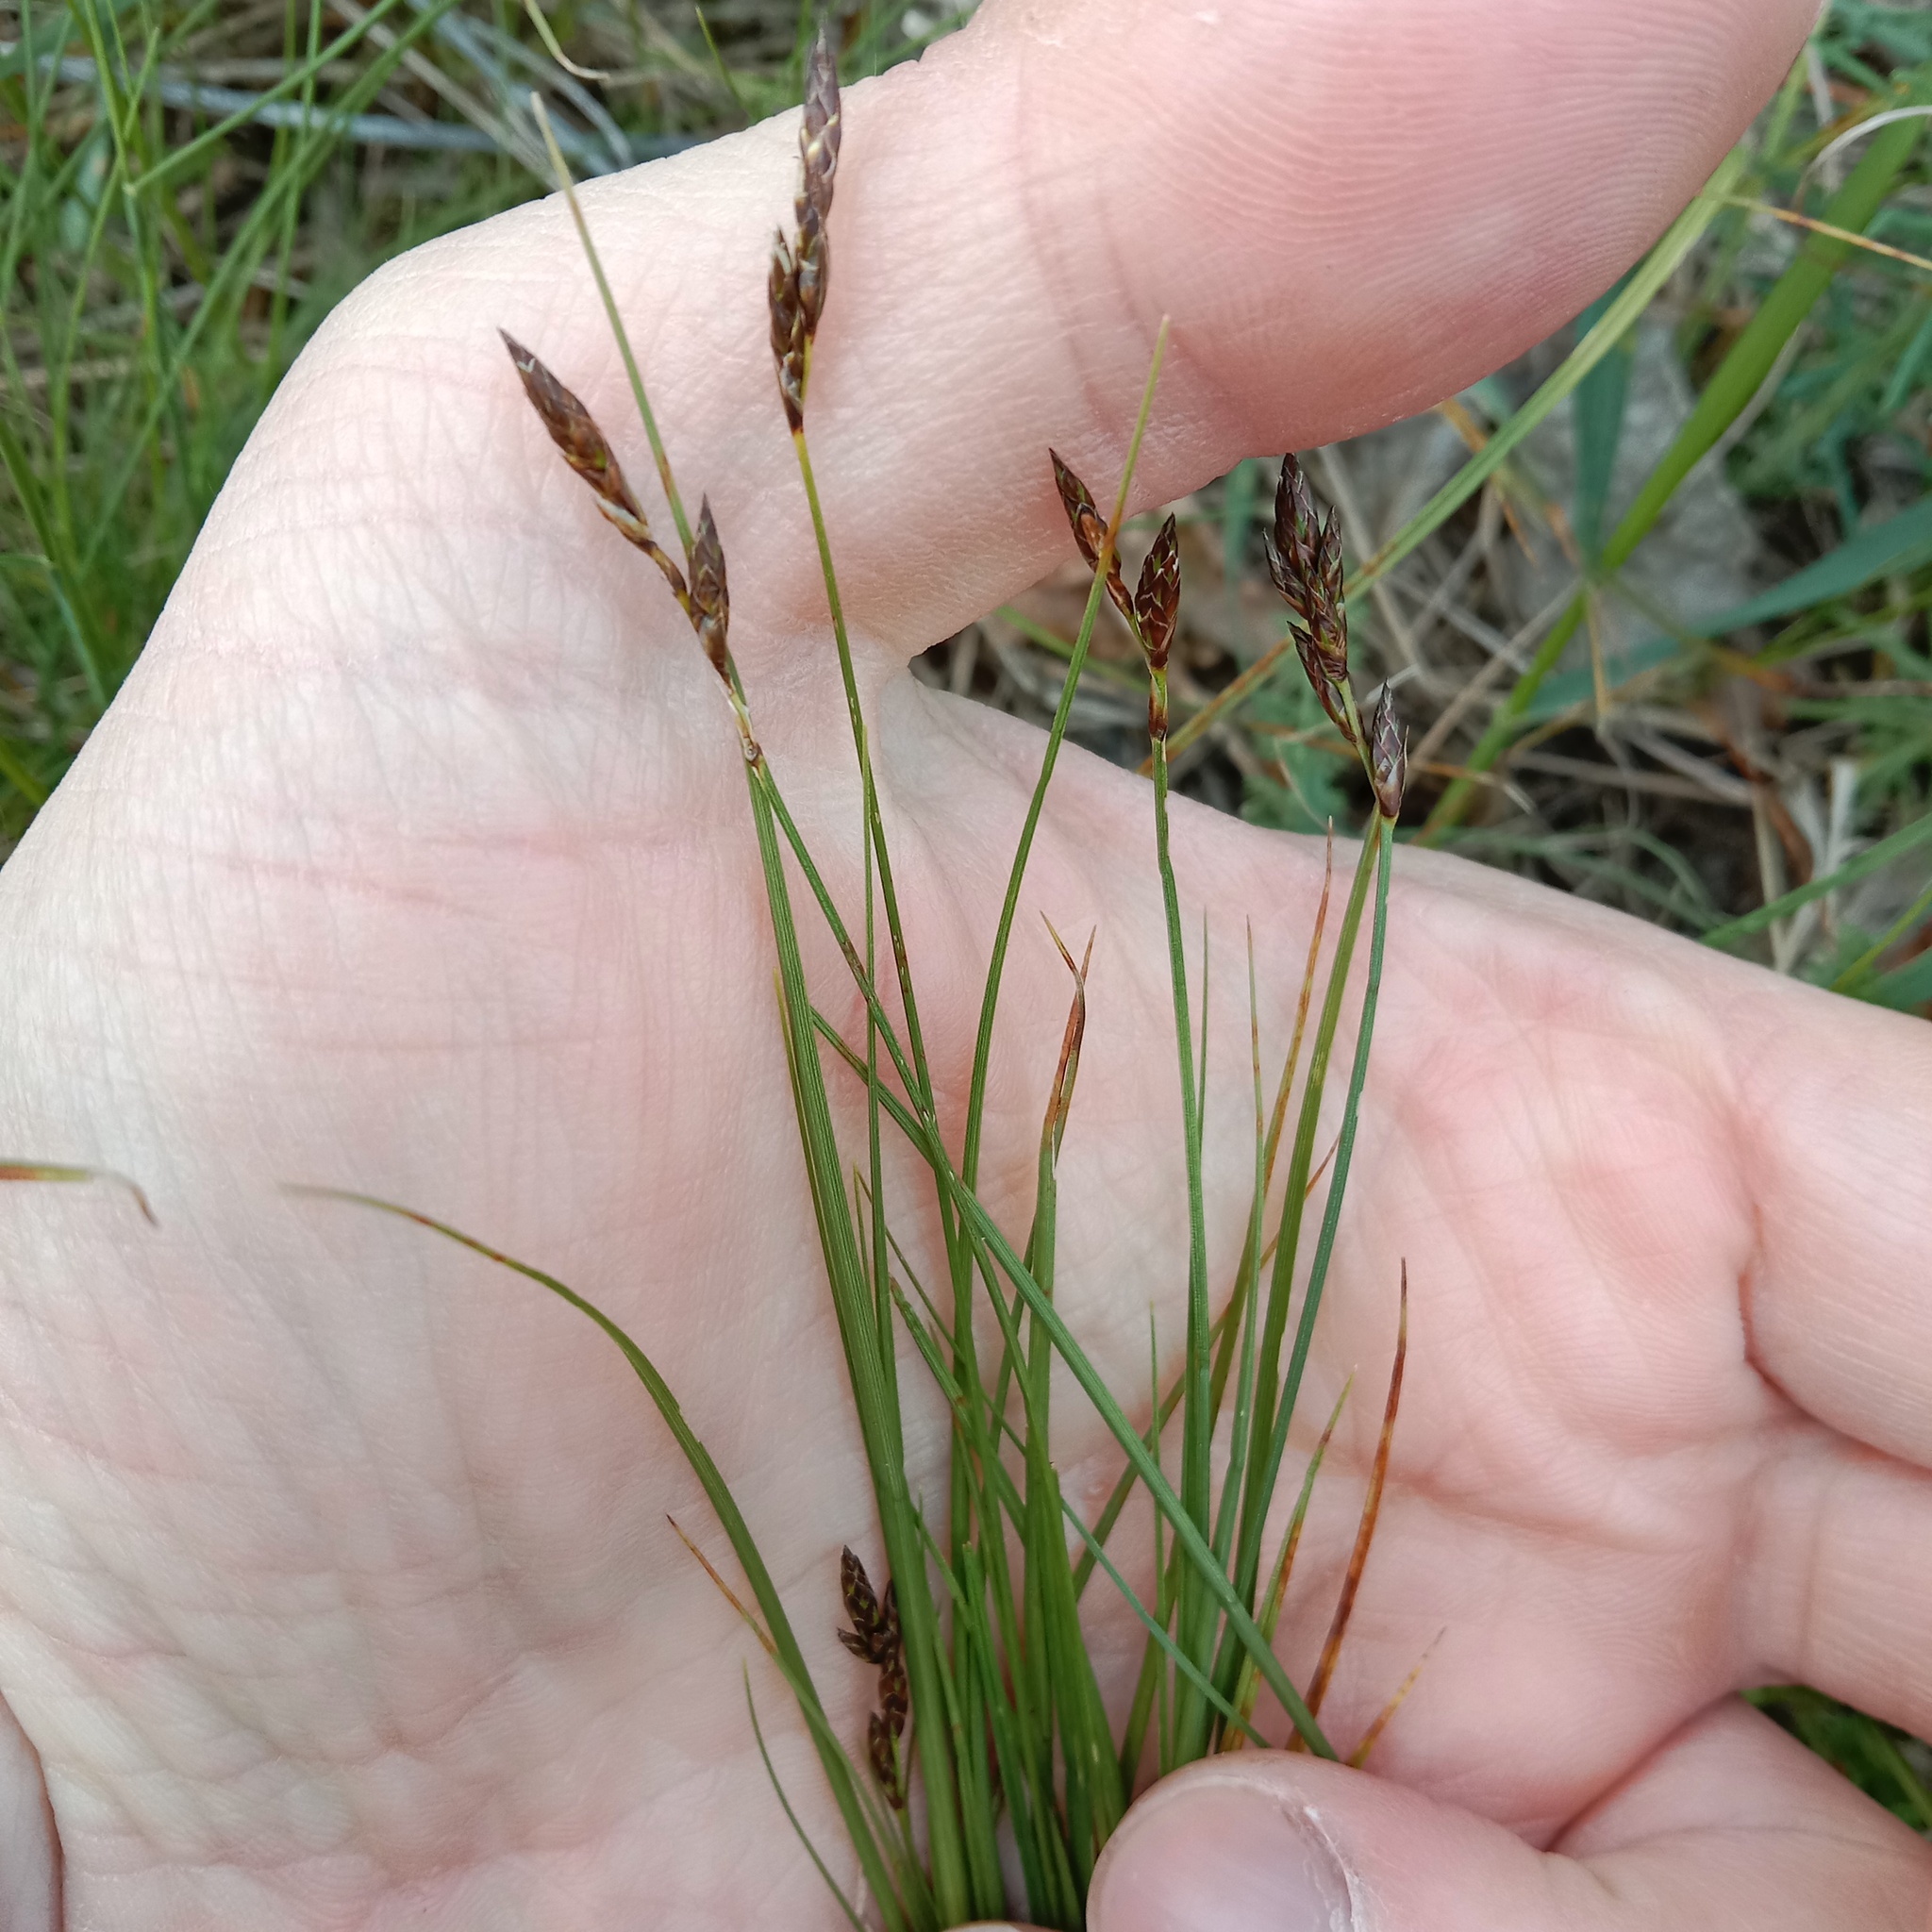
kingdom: Plantae
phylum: Tracheophyta
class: Liliopsida
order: Poales
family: Cyperaceae
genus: Carex
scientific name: Carex praecox
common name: Early sedge
